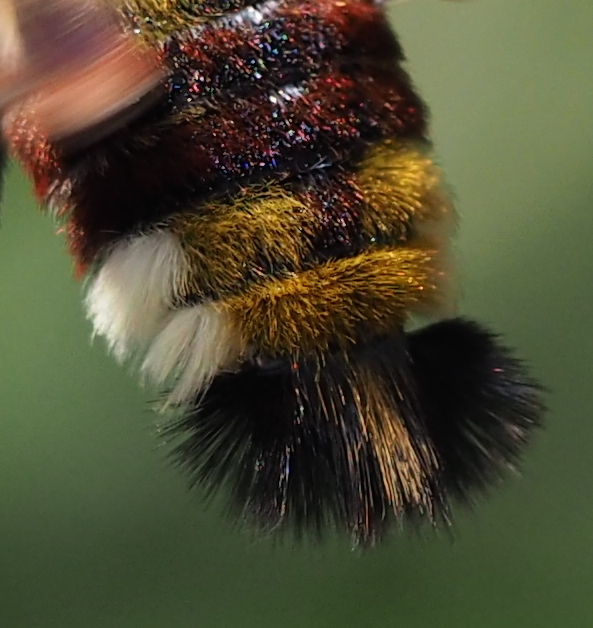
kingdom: Animalia
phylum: Arthropoda
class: Insecta
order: Lepidoptera
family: Sphingidae
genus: Hemaris
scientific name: Hemaris fuciformis
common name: Broad-bordered bee hawk-moth
